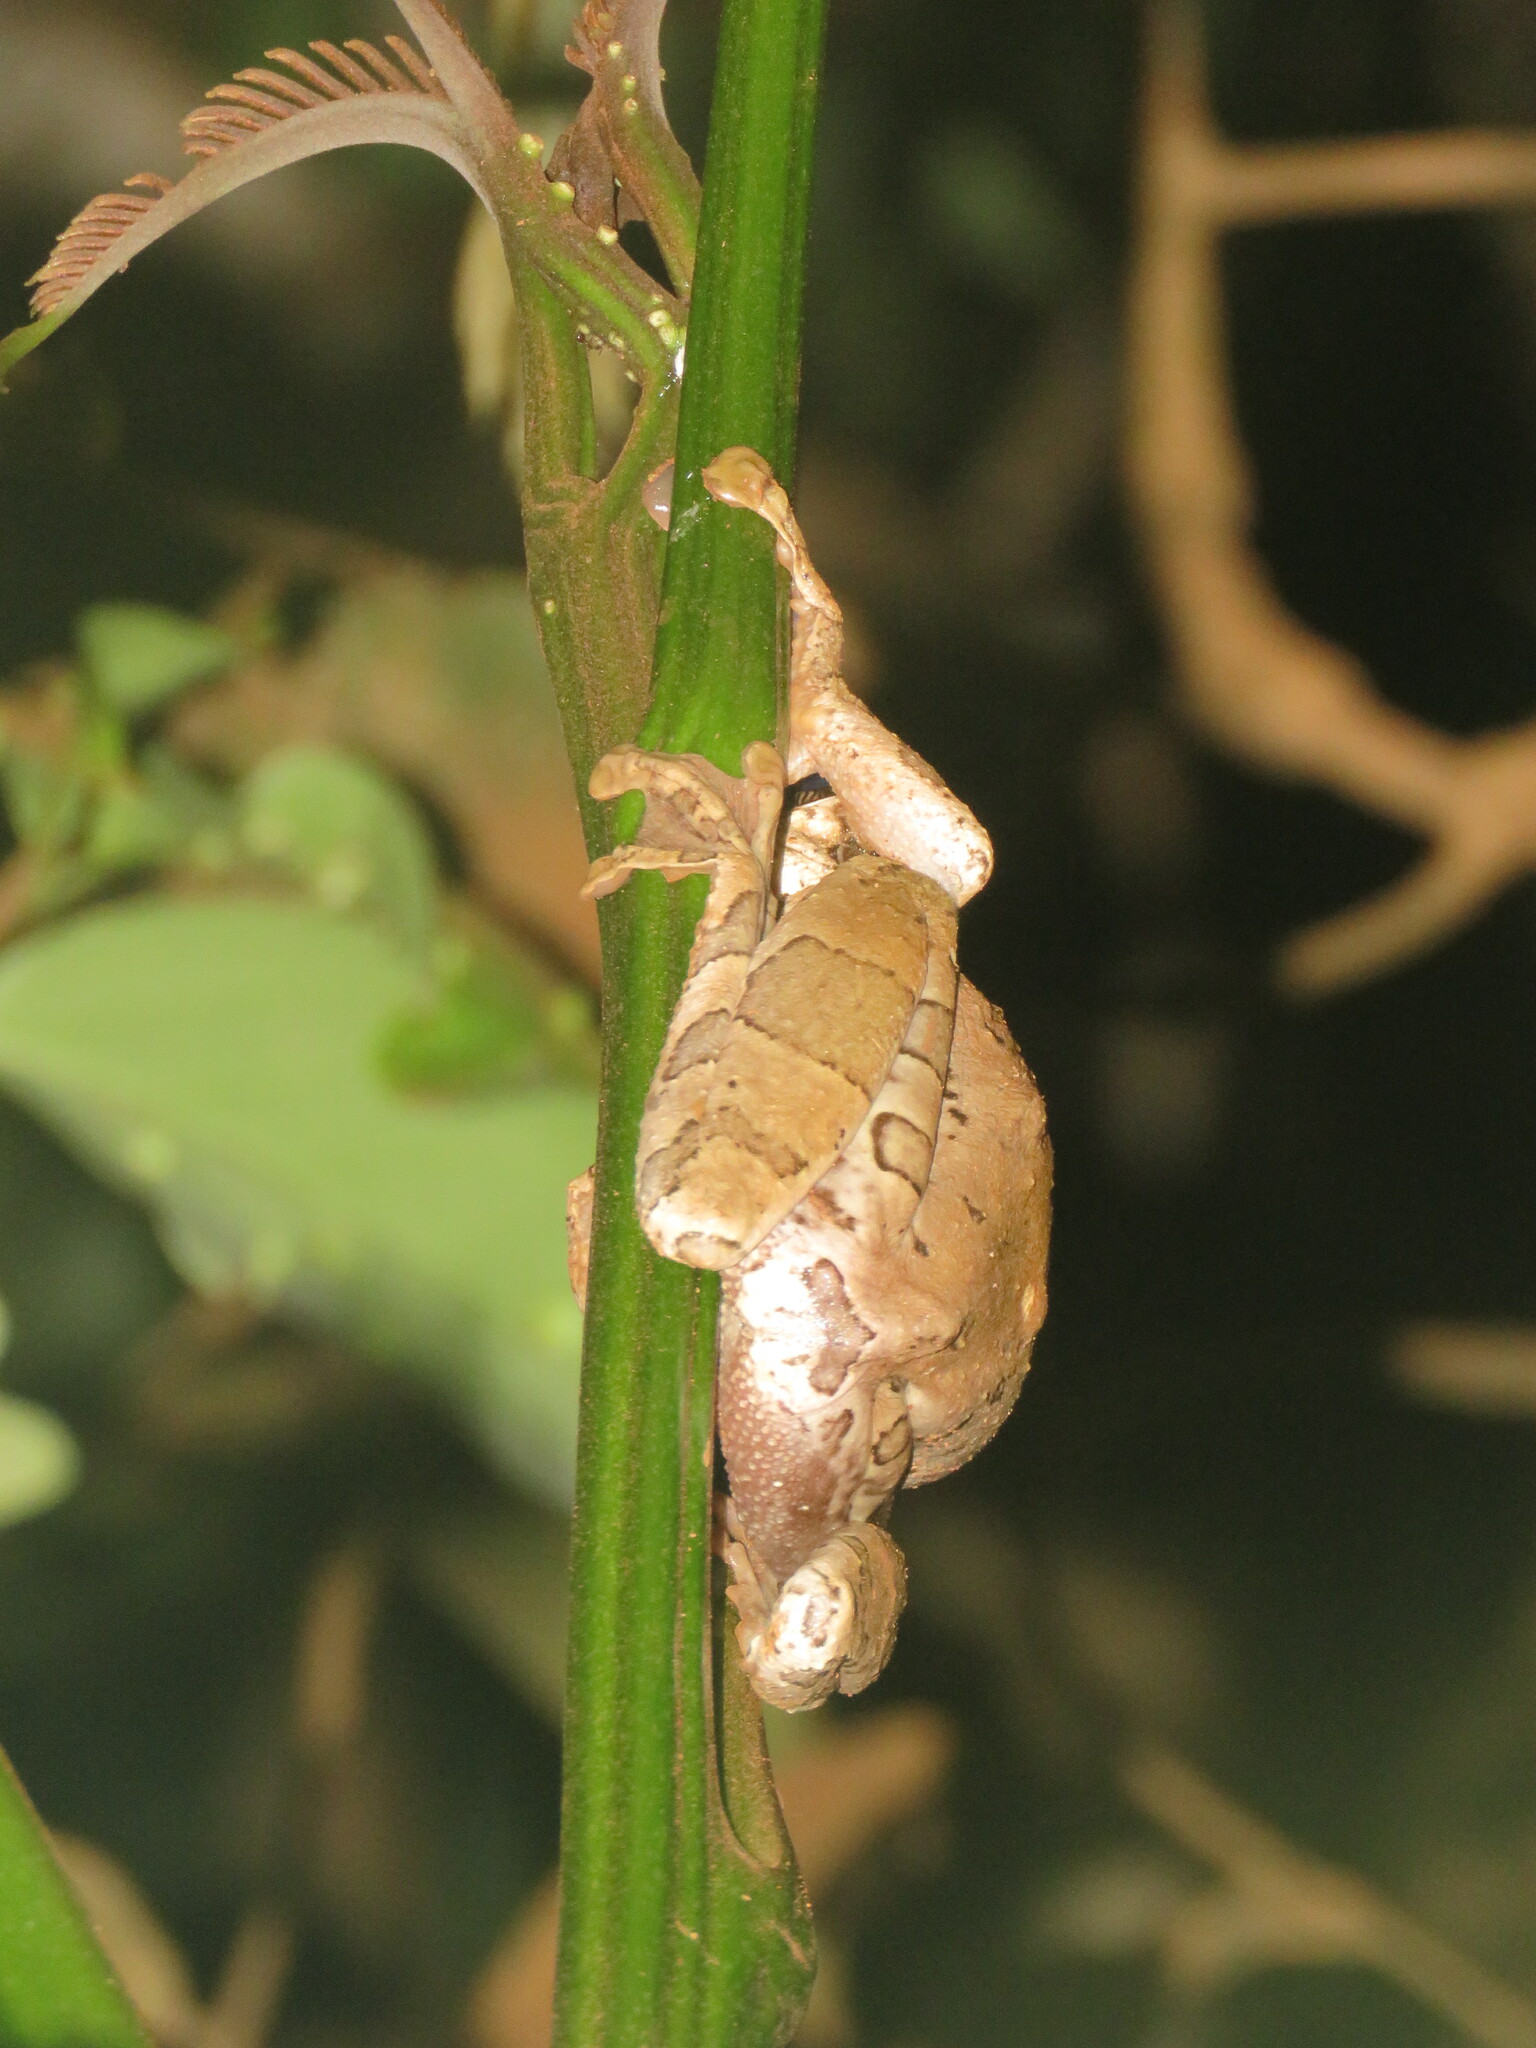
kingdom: Animalia
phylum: Chordata
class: Amphibia
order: Anura
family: Hylidae
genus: Trachycephalus
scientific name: Trachycephalus typhonius
